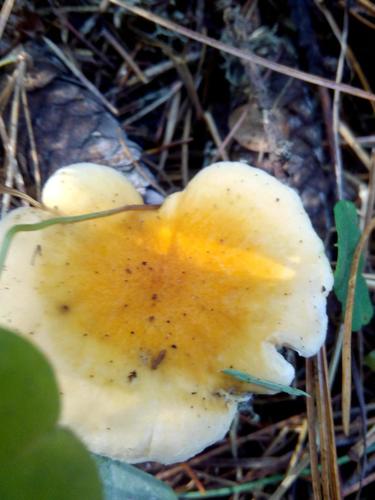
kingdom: Fungi
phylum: Basidiomycota
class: Agaricomycetes
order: Boletales
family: Hygrophoropsidaceae
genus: Hygrophoropsis
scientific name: Hygrophoropsis aurantiaca
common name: False chanterelle
